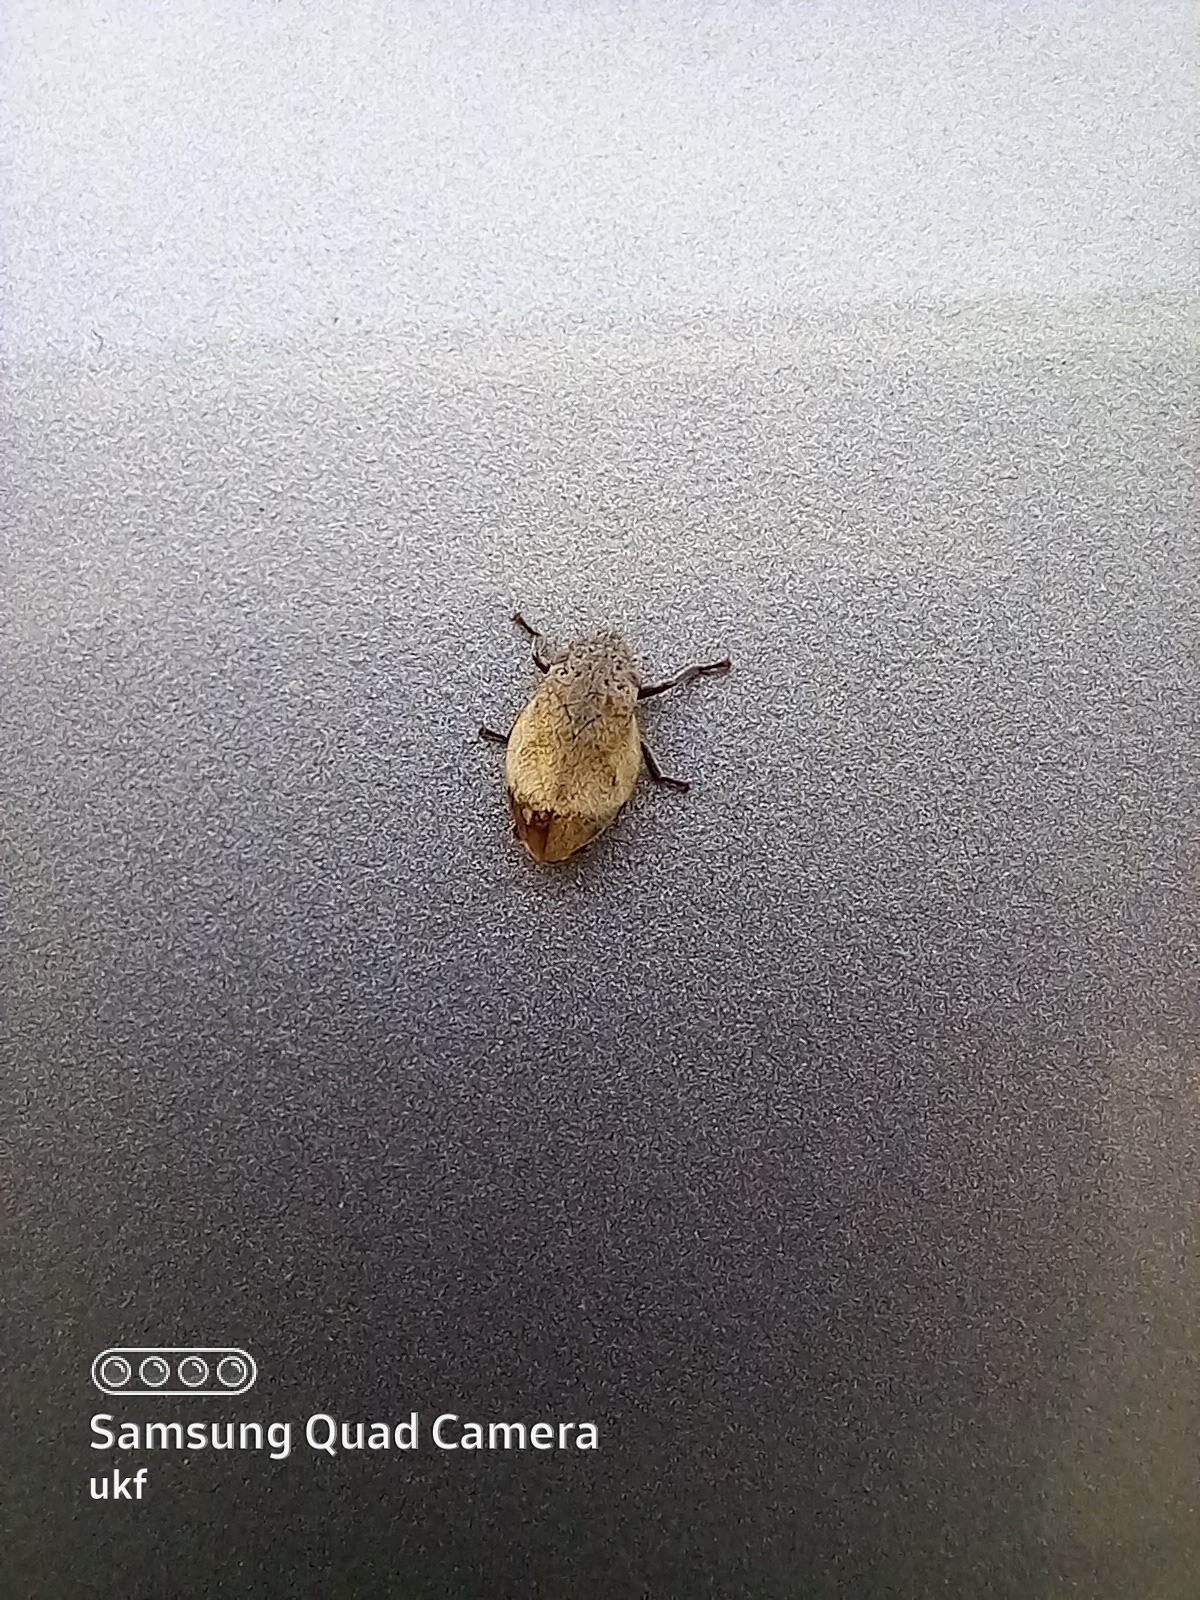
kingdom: Animalia
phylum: Arthropoda
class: Insecta
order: Hemiptera
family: Aphrophoridae
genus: Lepyronia
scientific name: Lepyronia gibbosa
